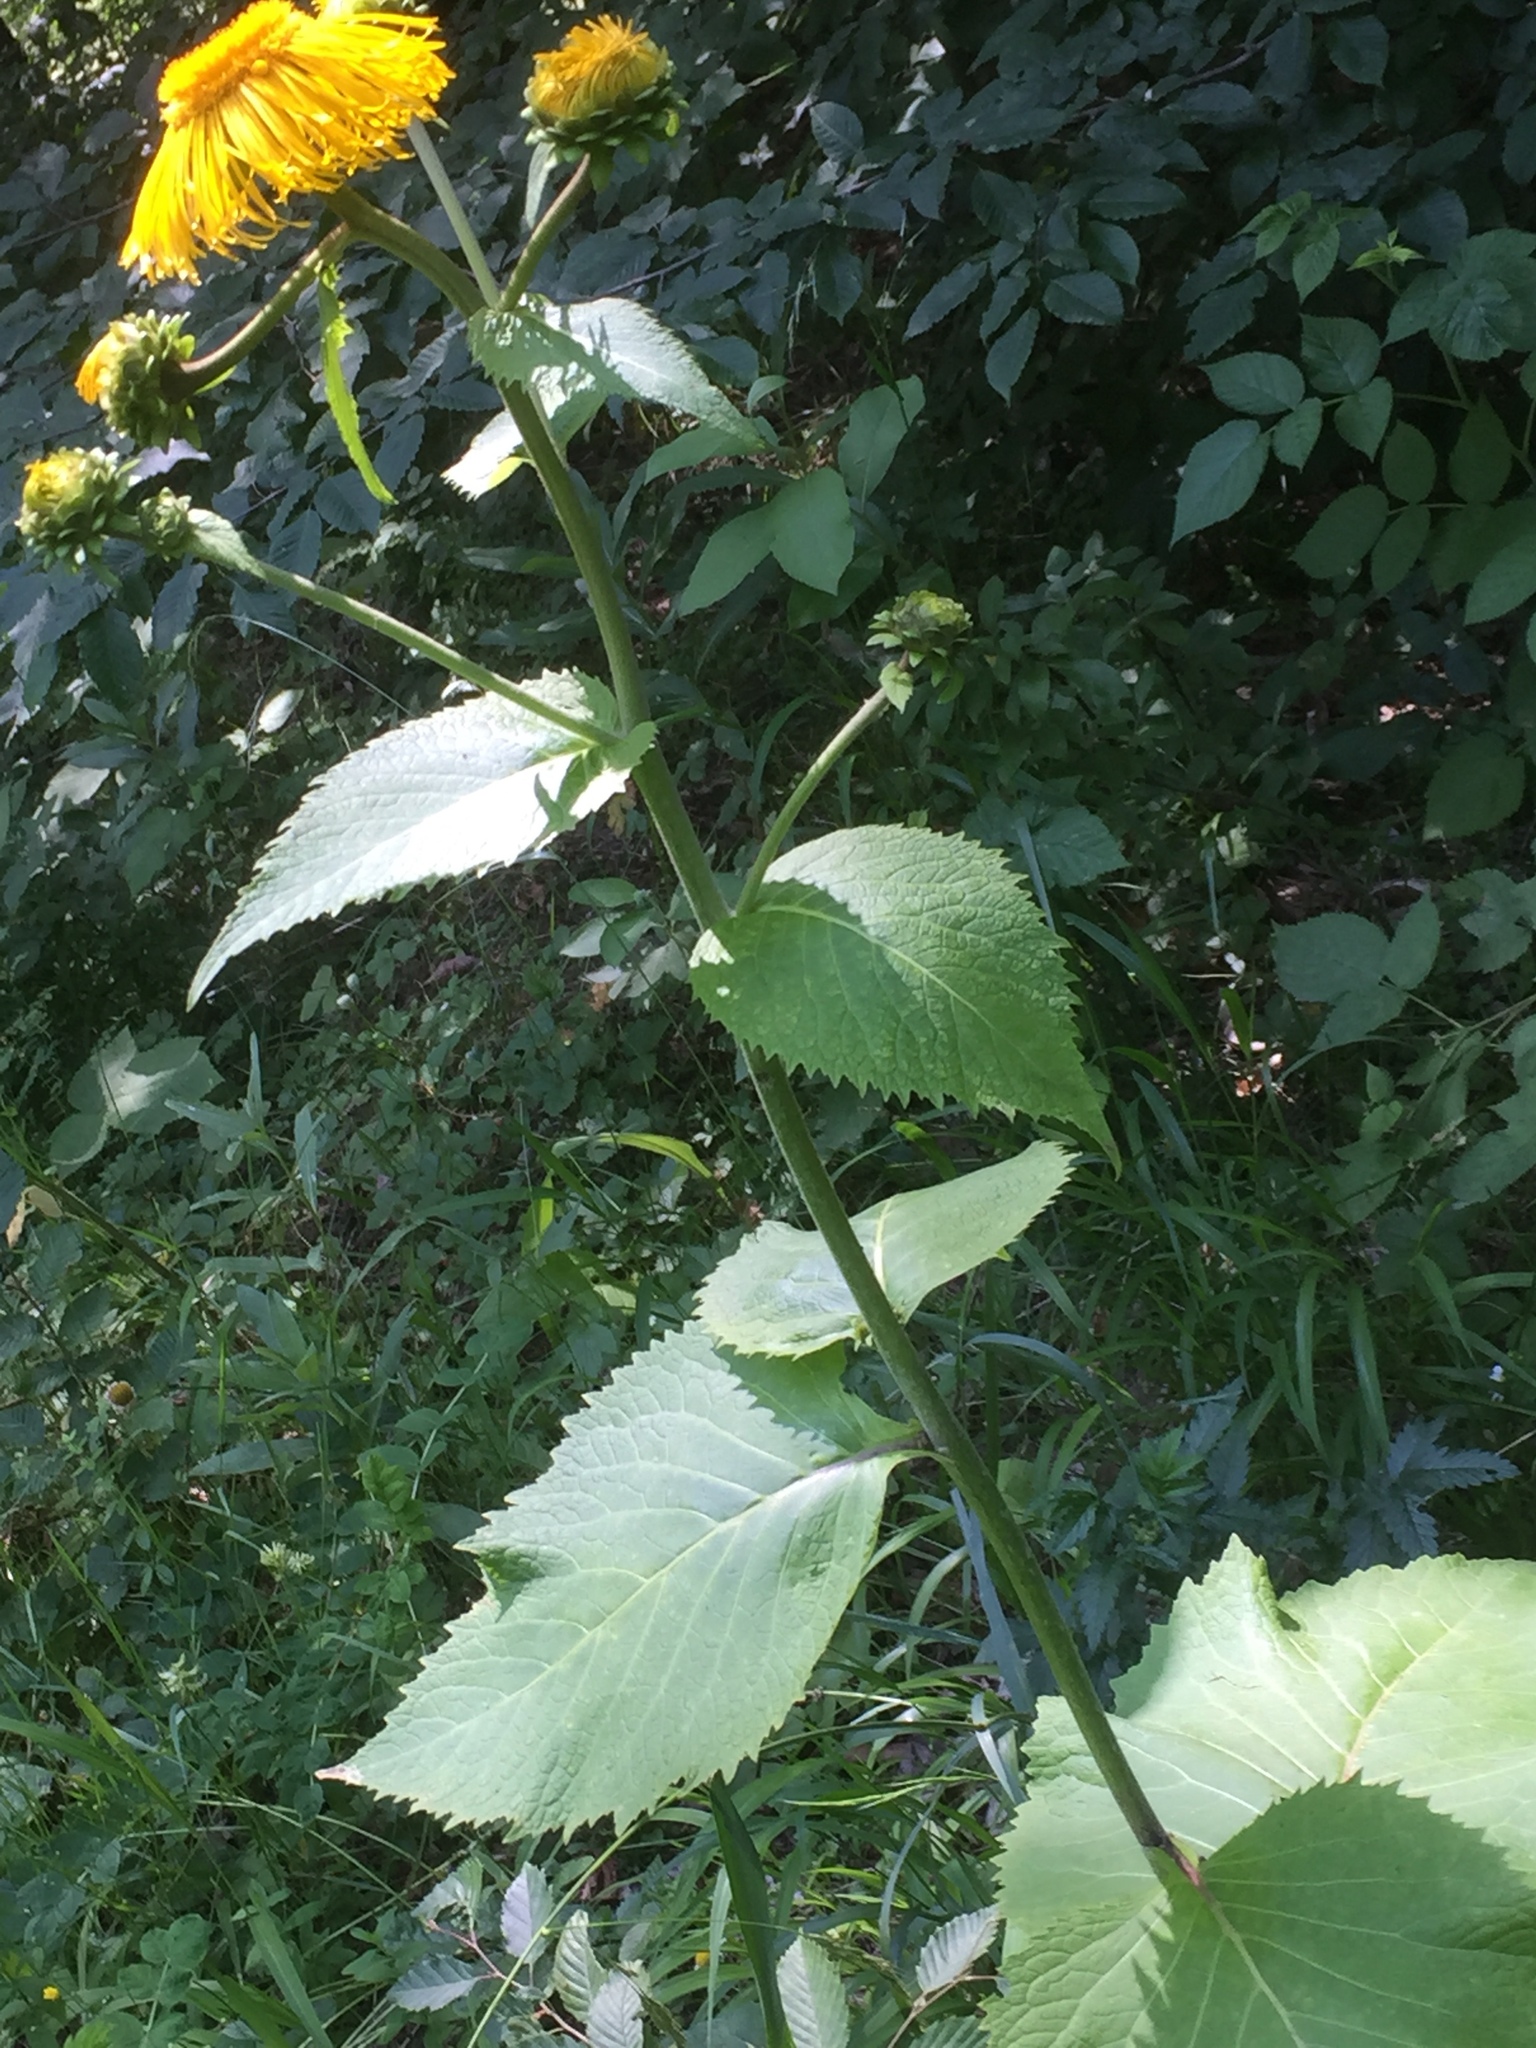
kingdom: Plantae
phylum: Tracheophyta
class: Magnoliopsida
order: Asterales
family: Asteraceae
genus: Telekia
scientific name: Telekia speciosa
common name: Yellow oxeye
